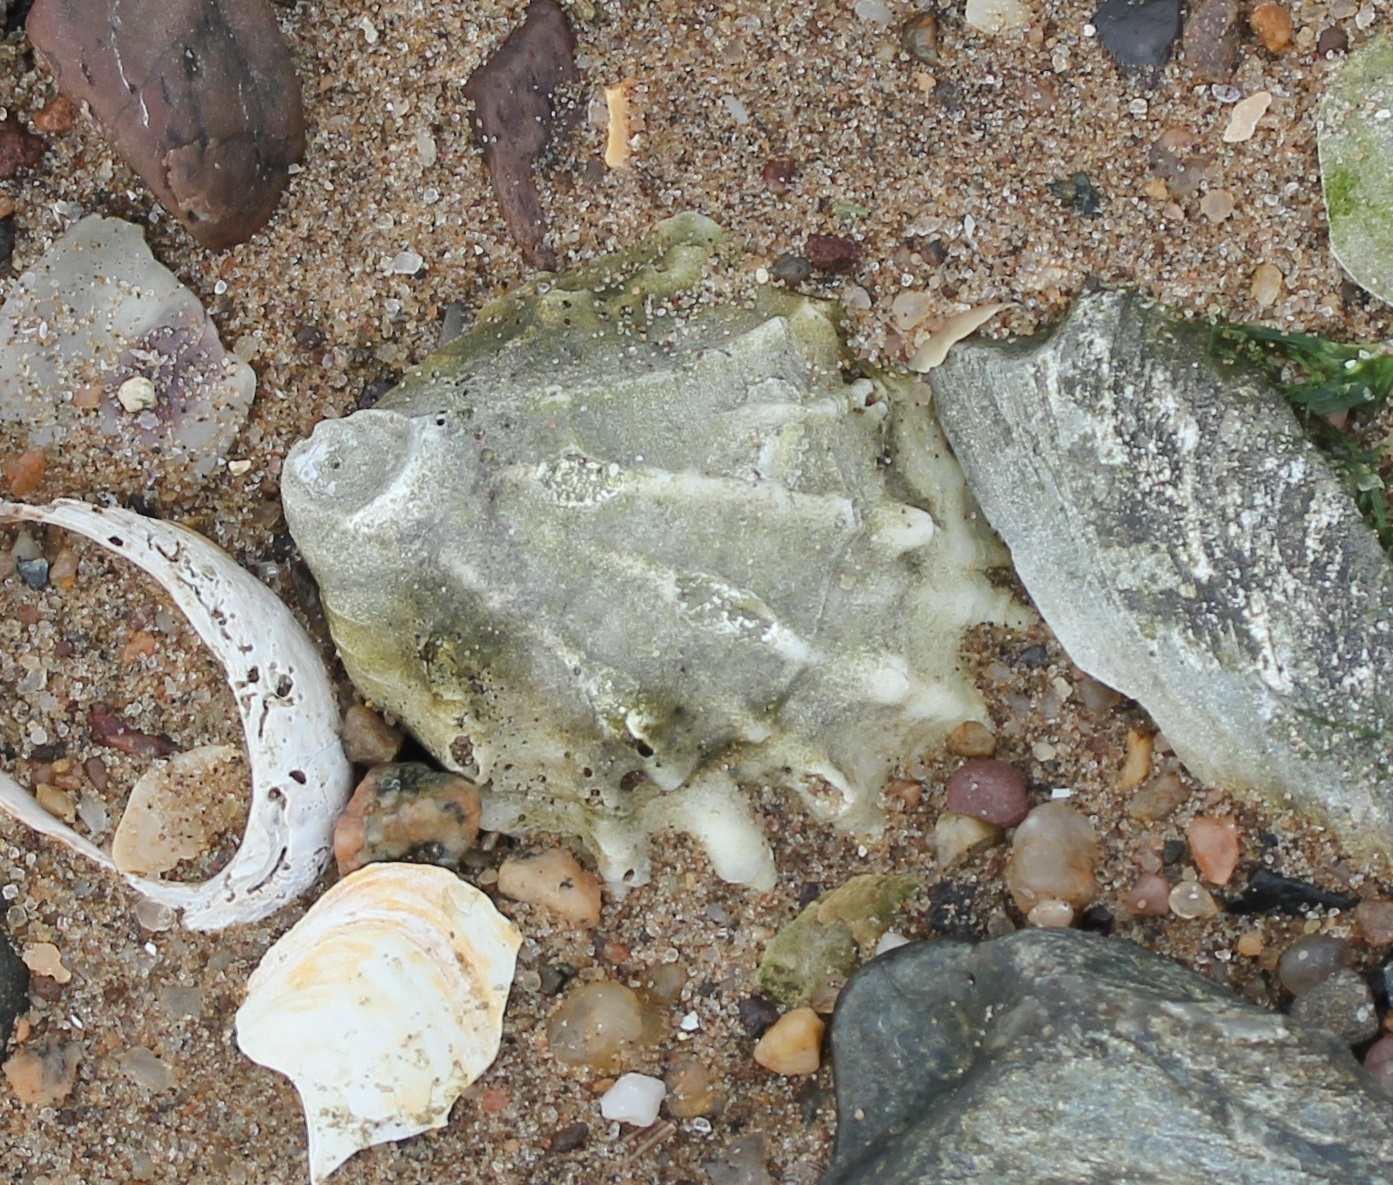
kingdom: Animalia
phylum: Mollusca
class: Bivalvia
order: Ostreida
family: Ostreidae
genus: Crassostrea
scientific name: Crassostrea virginica
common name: American oyster
